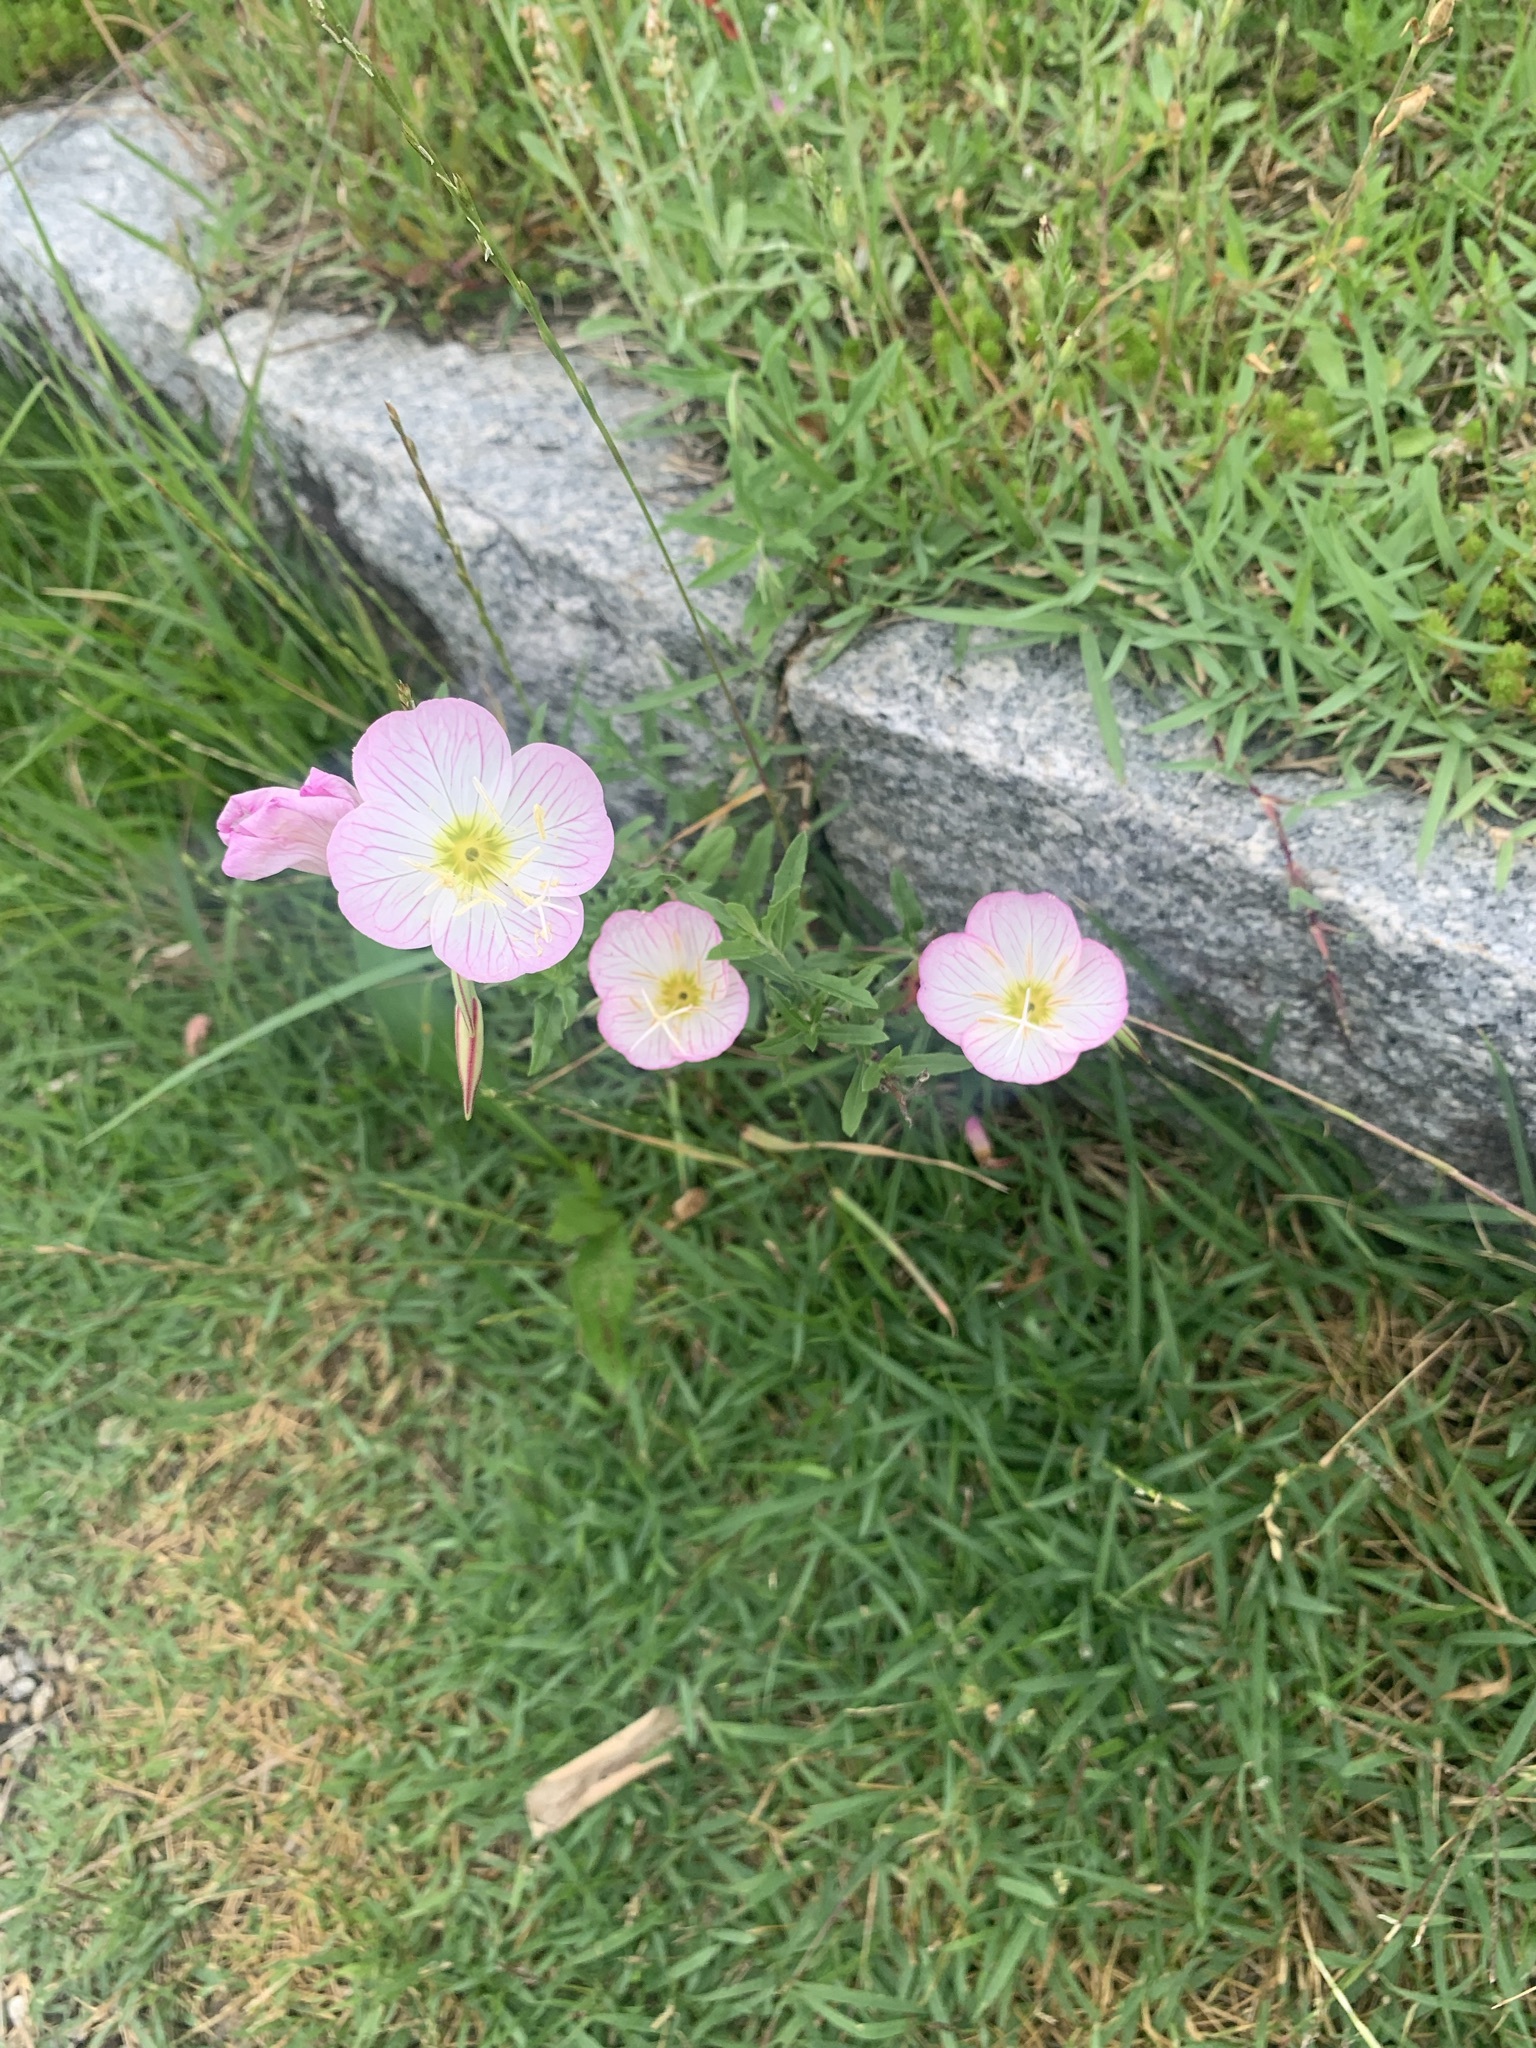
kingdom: Plantae
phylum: Tracheophyta
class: Magnoliopsida
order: Myrtales
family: Onagraceae
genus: Oenothera
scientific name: Oenothera speciosa
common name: White evening-primrose
